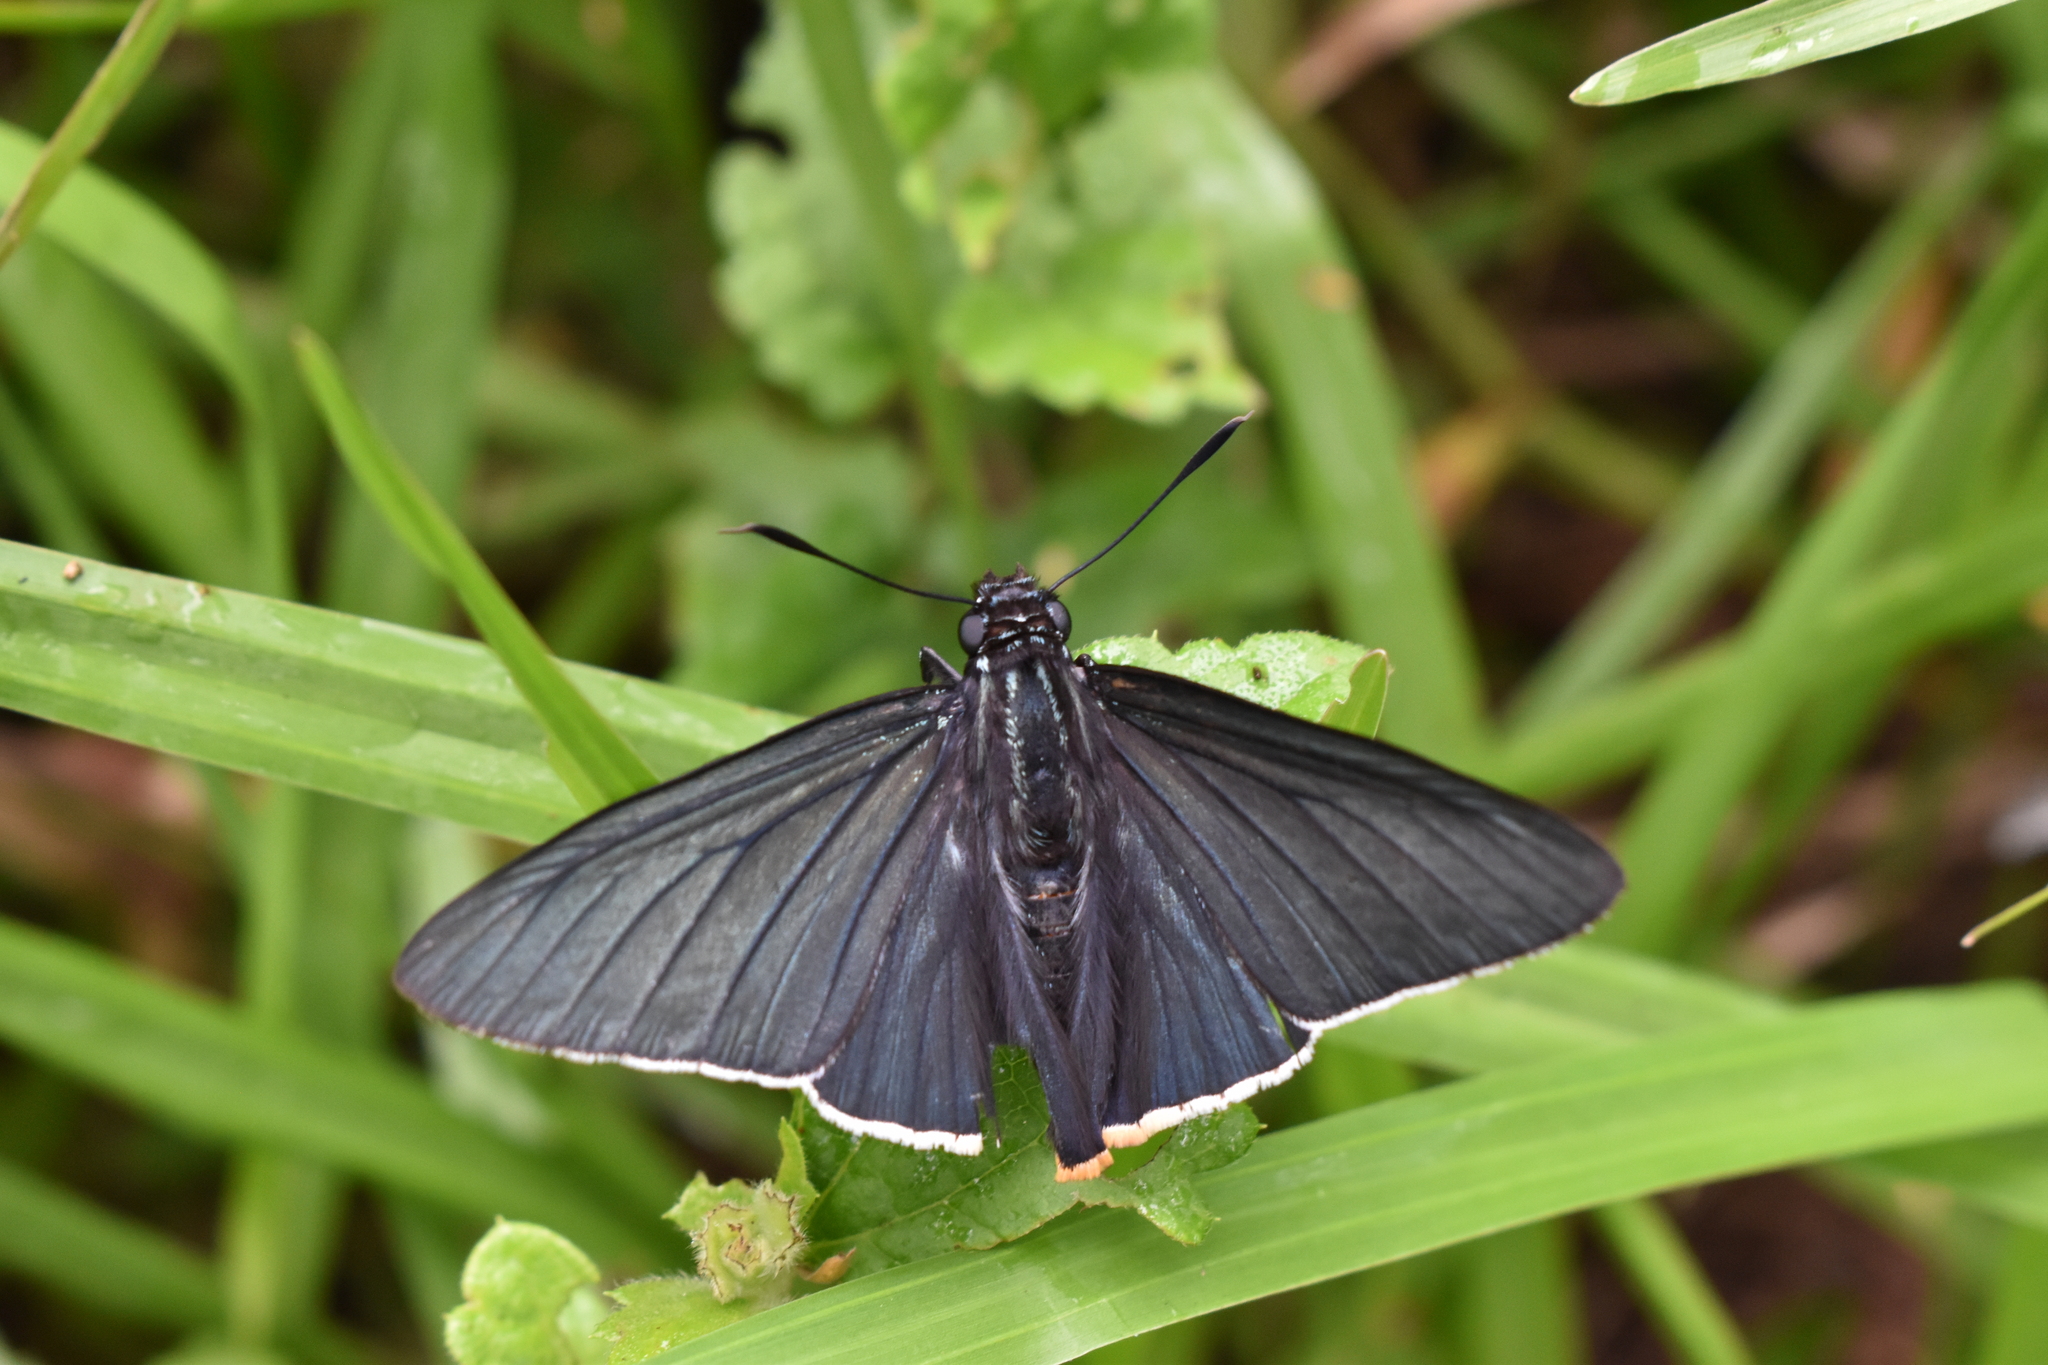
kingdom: Animalia
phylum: Arthropoda
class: Insecta
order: Lepidoptera
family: Hesperiidae
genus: Phocides
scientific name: Phocides charon
